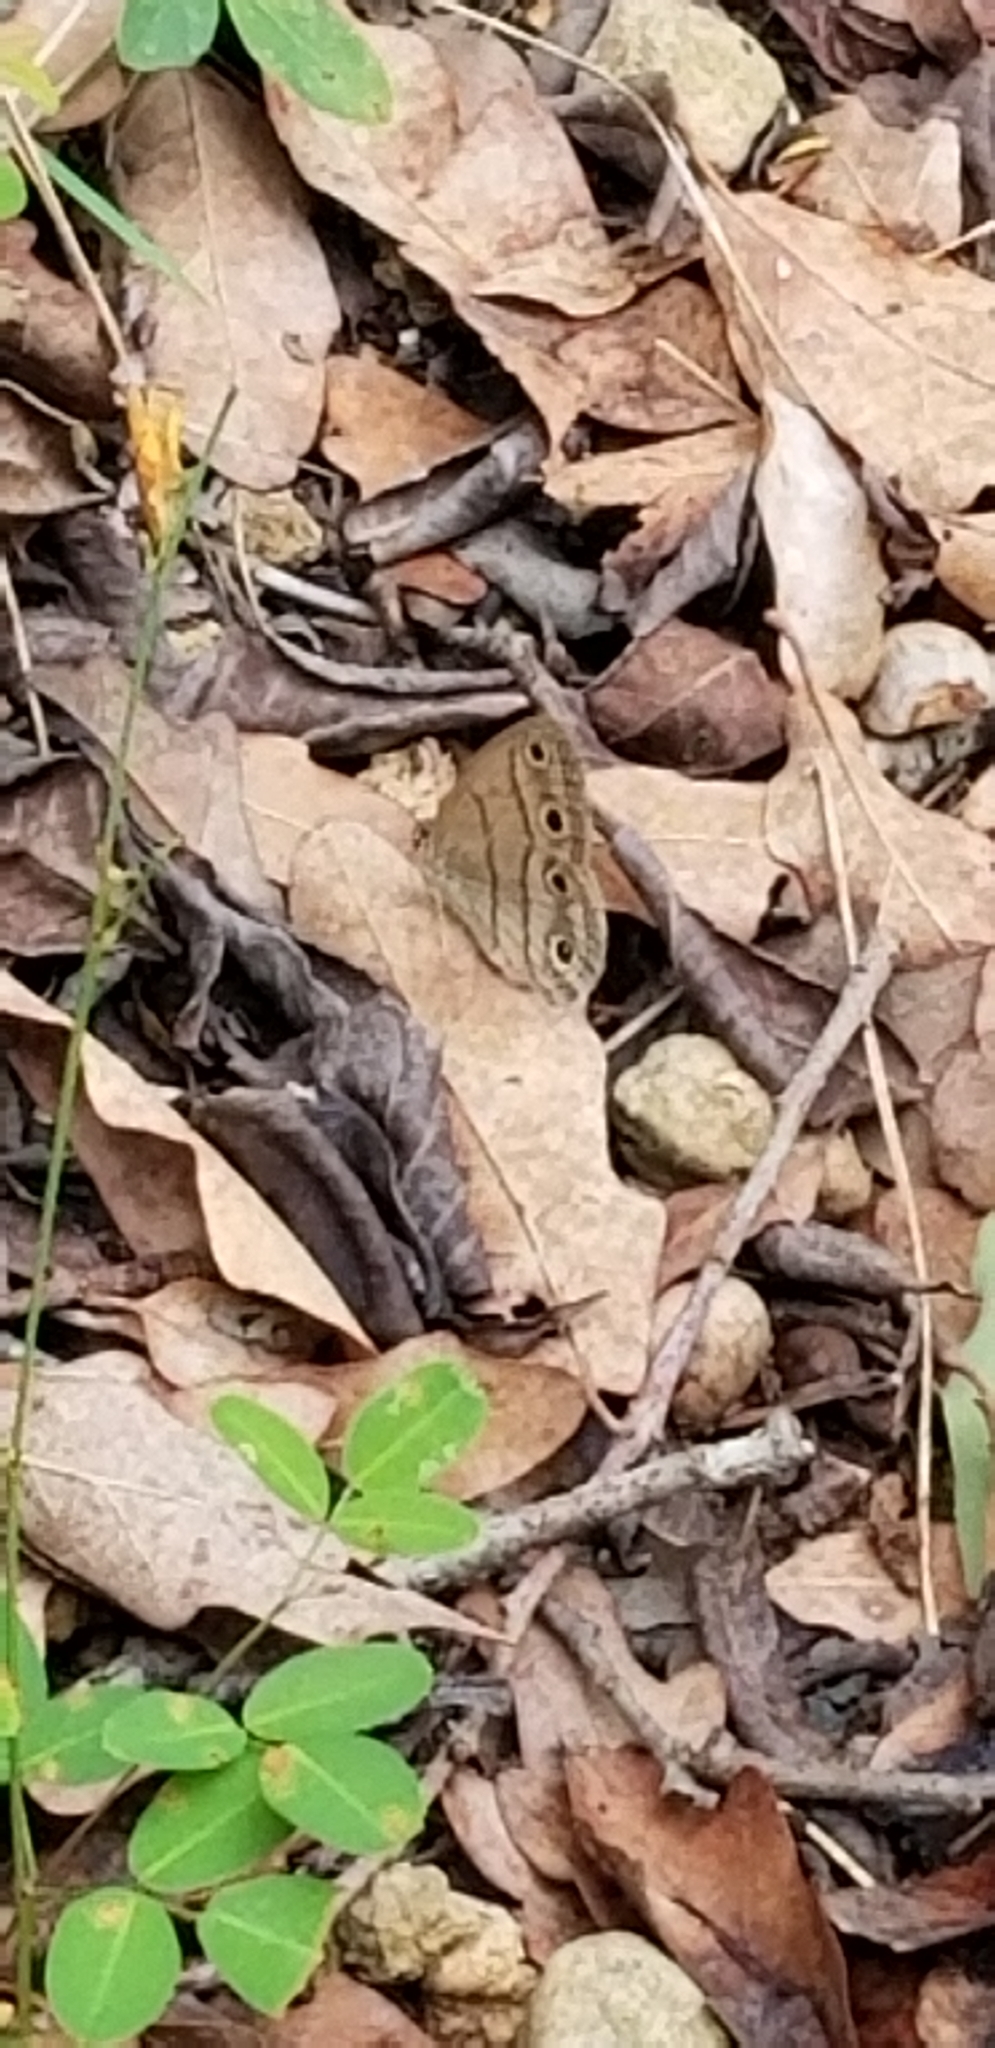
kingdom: Animalia
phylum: Arthropoda
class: Insecta
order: Lepidoptera
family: Nymphalidae
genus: Euptychia
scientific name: Euptychia cymela
